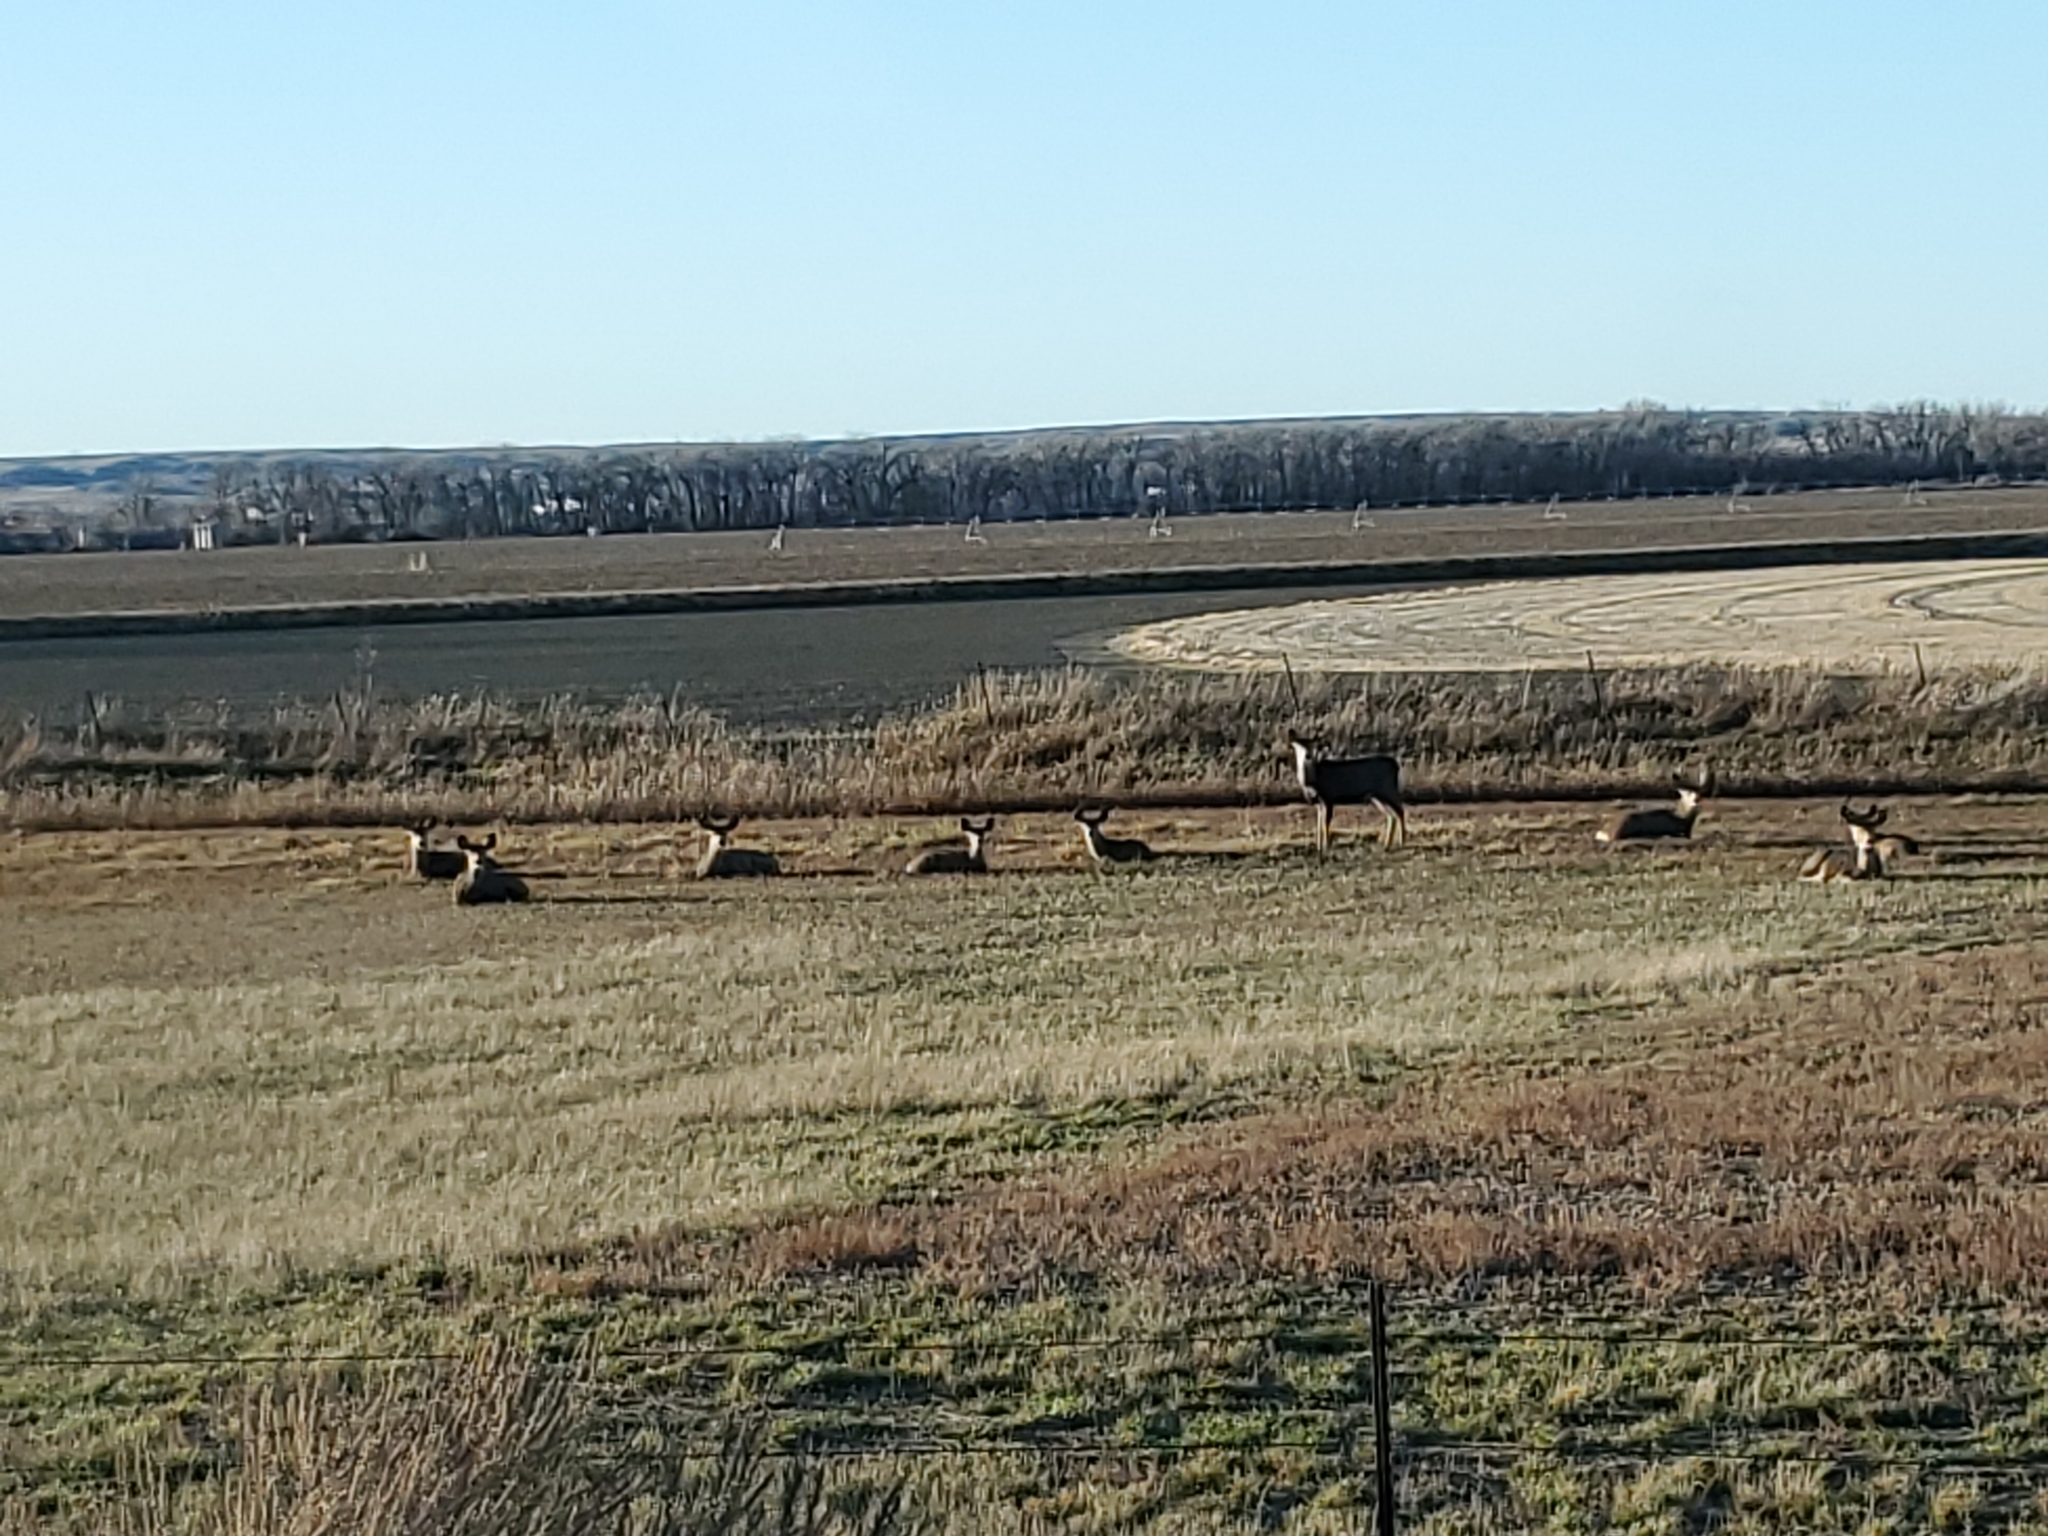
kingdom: Animalia
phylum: Chordata
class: Mammalia
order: Artiodactyla
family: Cervidae
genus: Odocoileus
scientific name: Odocoileus hemionus
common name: Mule deer
